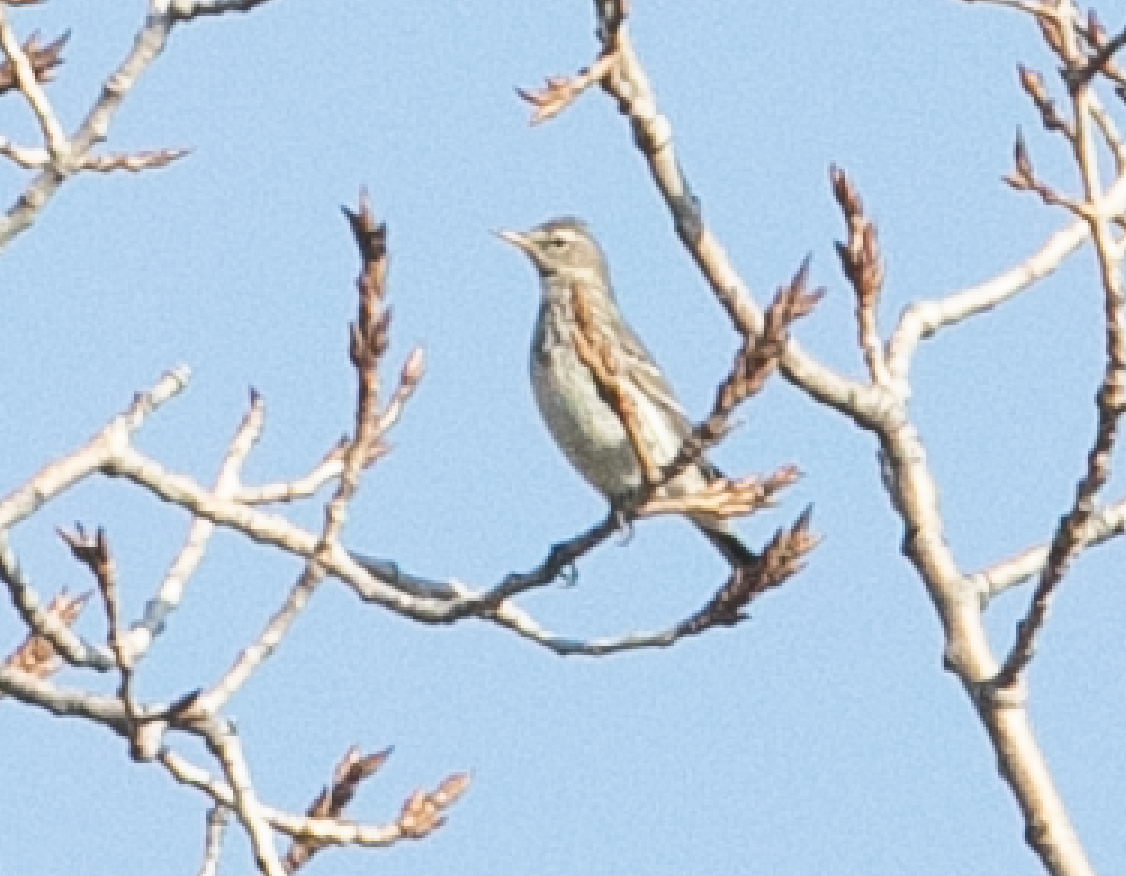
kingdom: Animalia
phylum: Chordata
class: Aves
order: Passeriformes
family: Motacillidae
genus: Anthus
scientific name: Anthus spinoletta
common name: Water pipit
